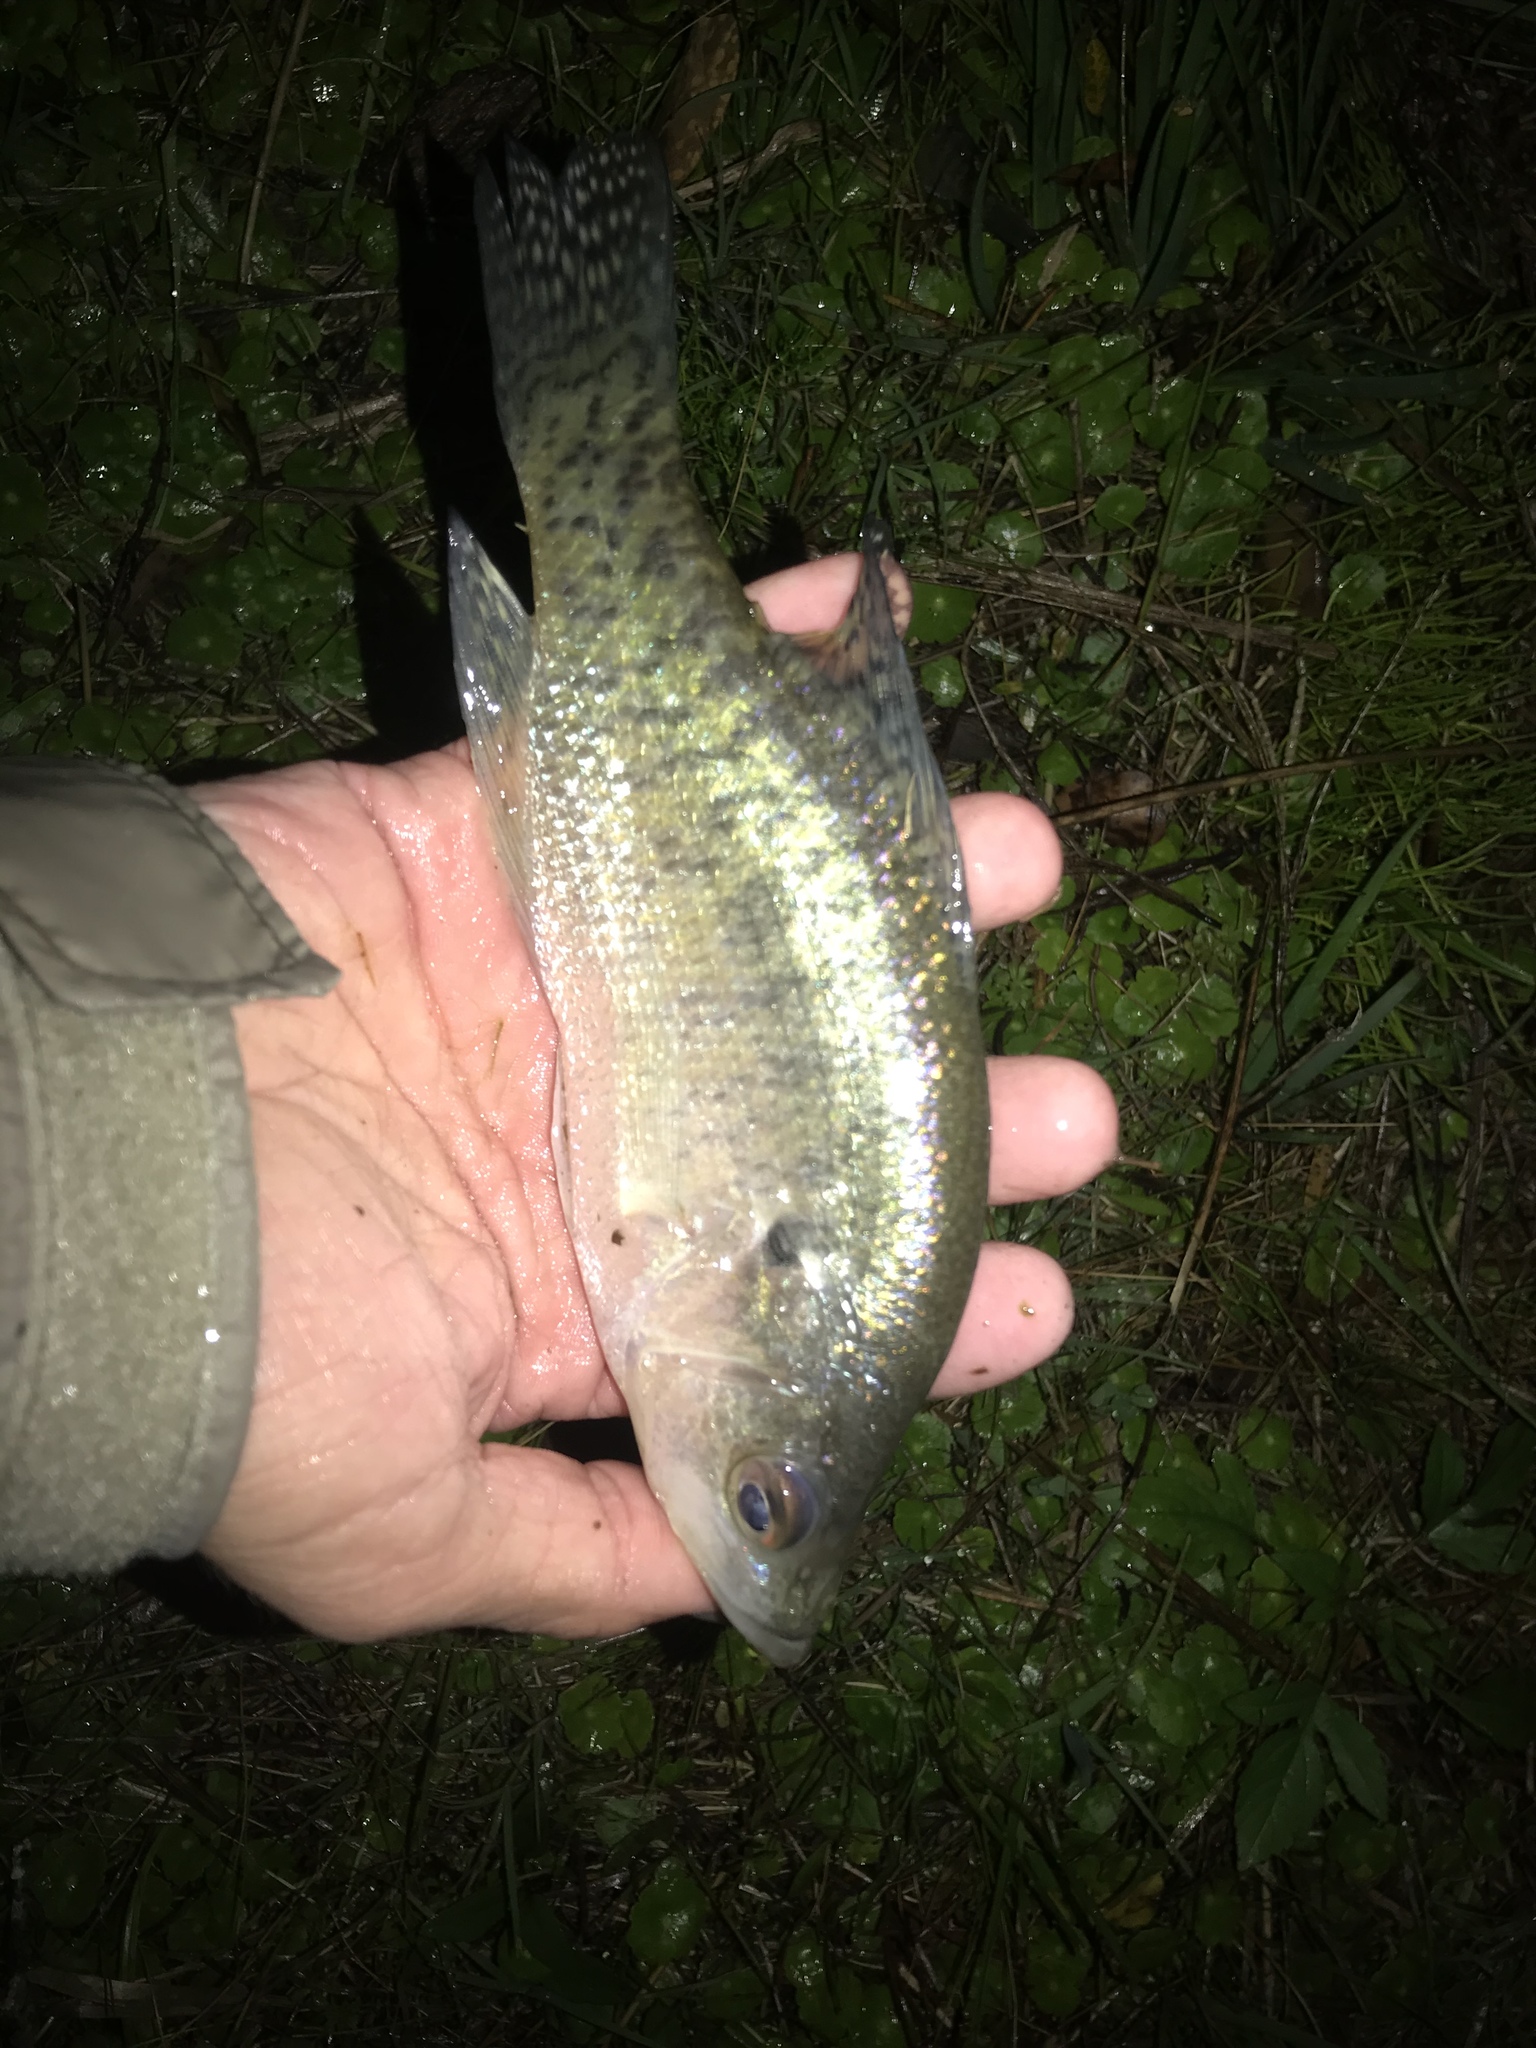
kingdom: Animalia
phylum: Chordata
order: Perciformes
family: Centrarchidae
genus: Pomoxis
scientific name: Pomoxis annularis
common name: White crappie
